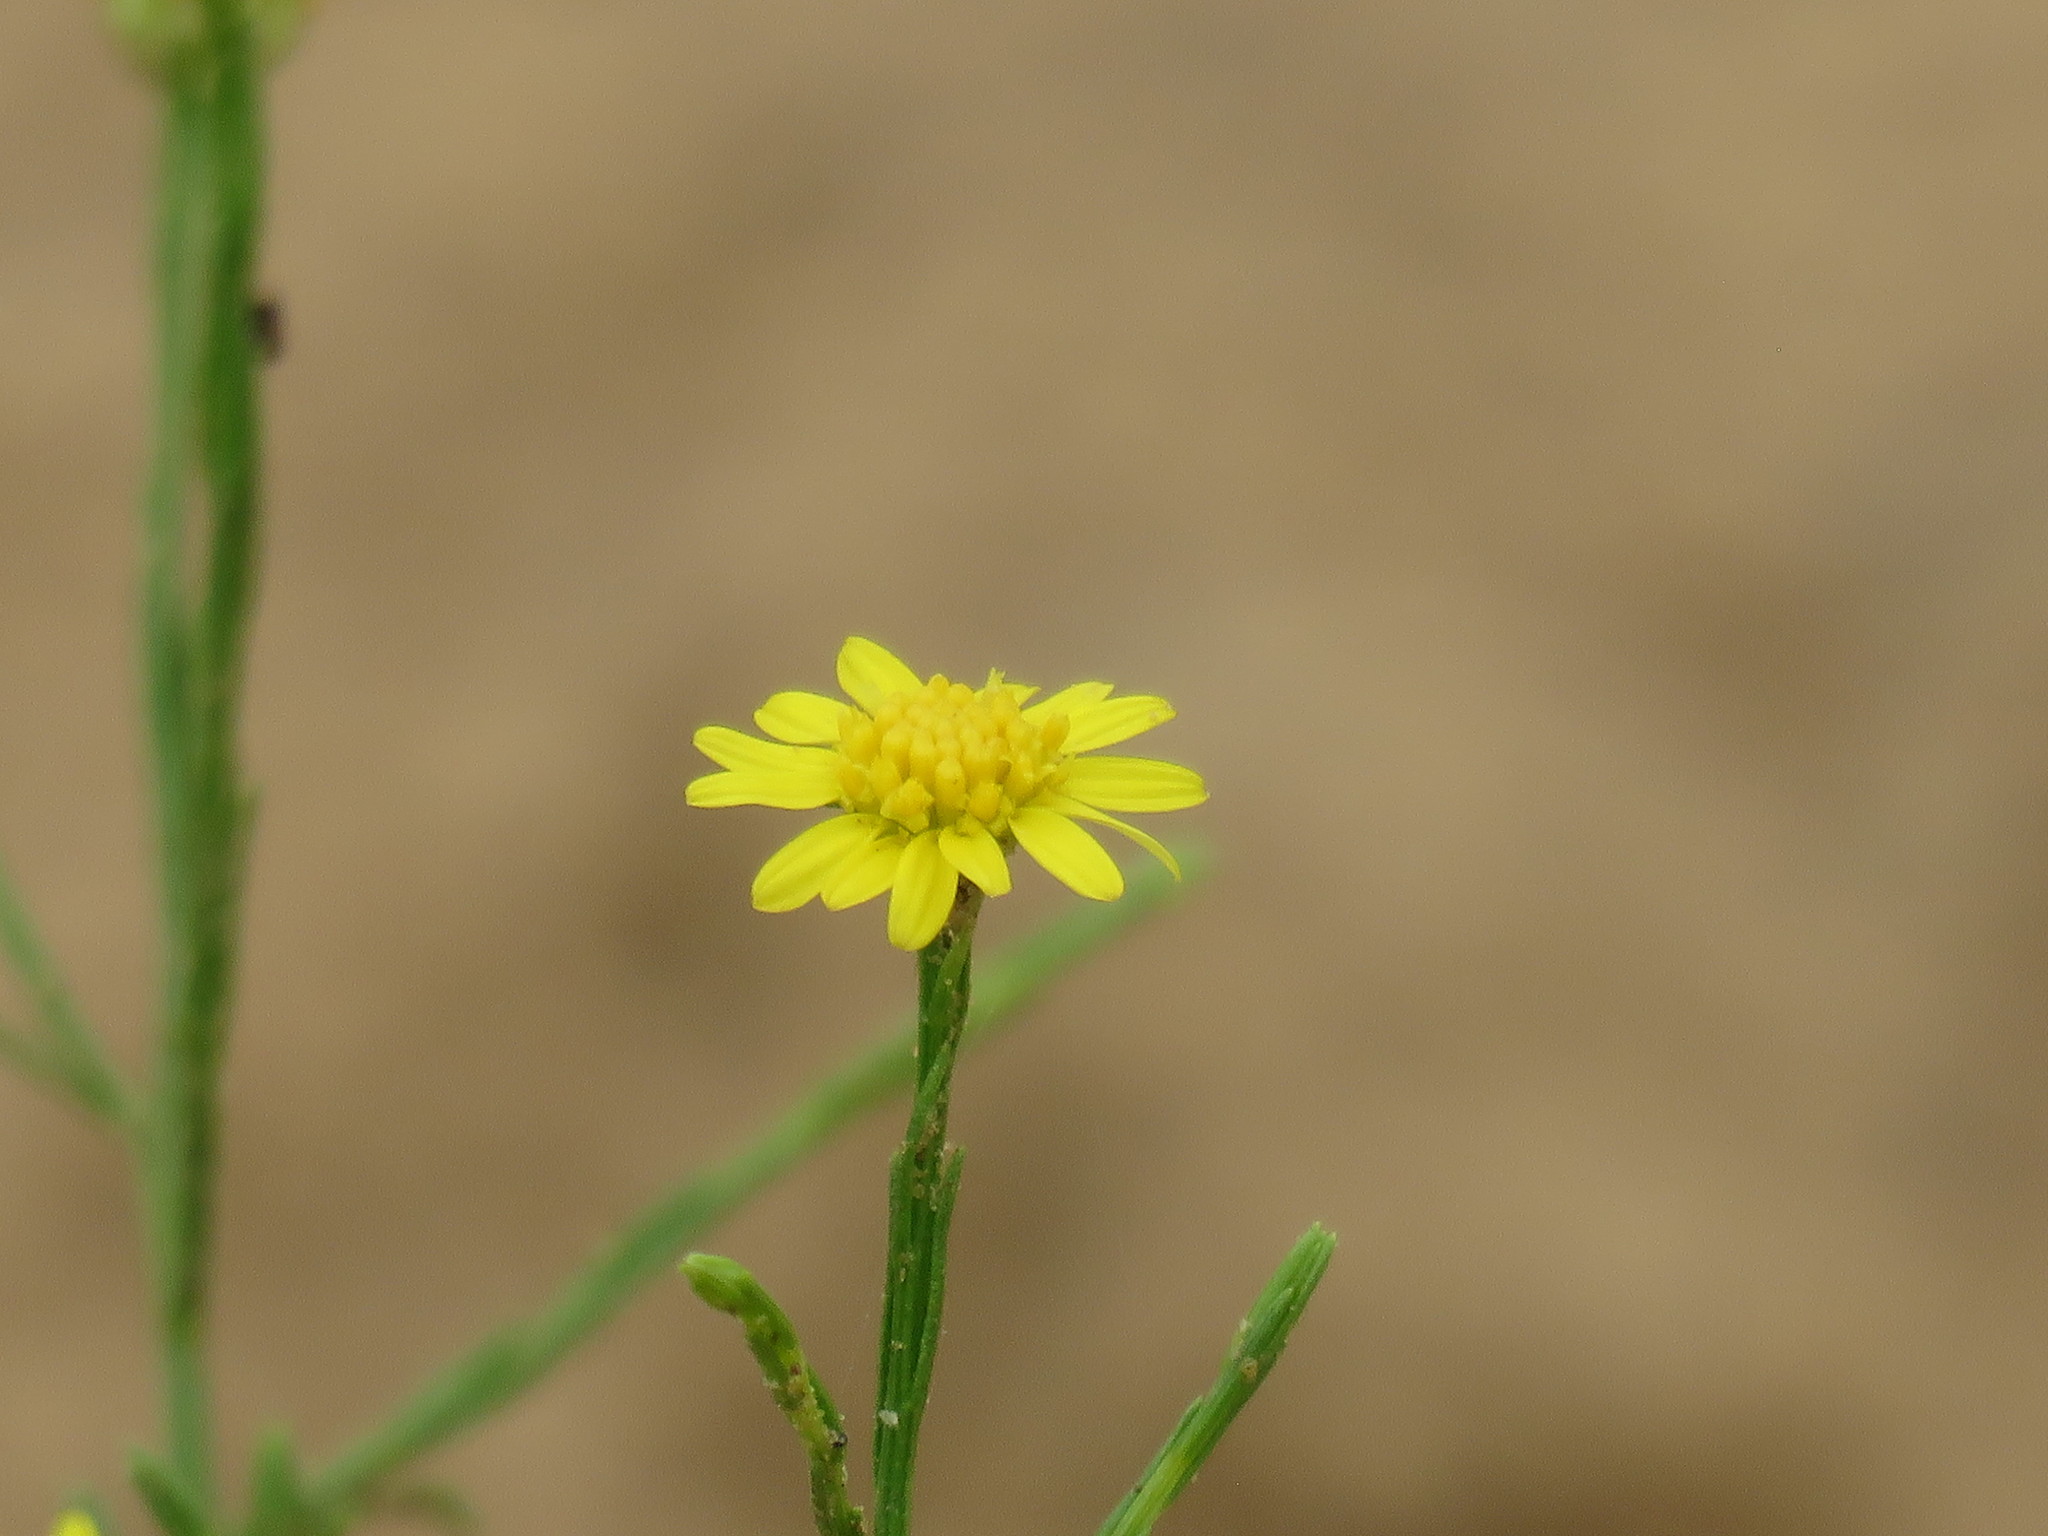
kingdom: Plantae
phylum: Tracheophyta
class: Magnoliopsida
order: Asterales
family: Asteraceae
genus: Gutierrezia
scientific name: Gutierrezia texana
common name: Texas snakeweed
